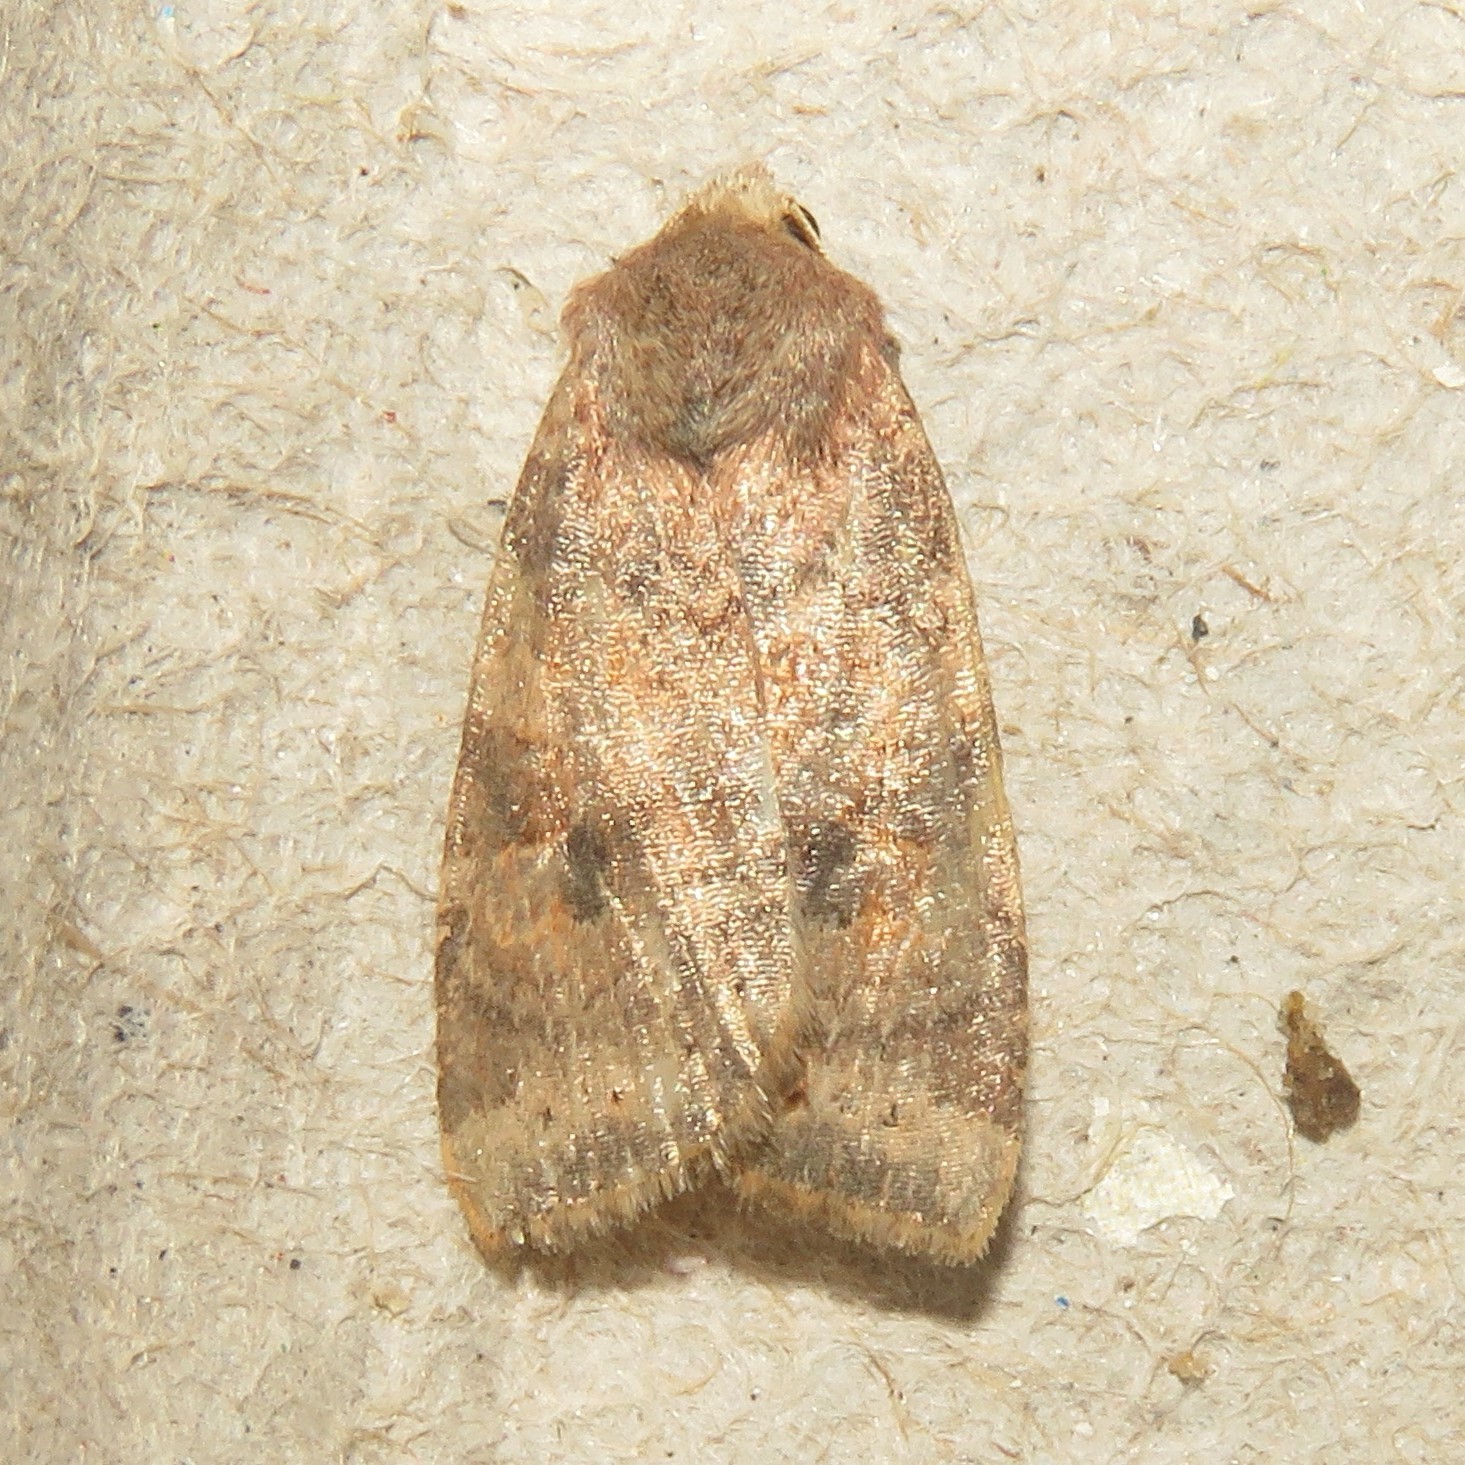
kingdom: Animalia
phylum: Arthropoda
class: Insecta
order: Lepidoptera
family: Noctuidae
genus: Anathix
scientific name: Anathix puta
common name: Puta sallow
